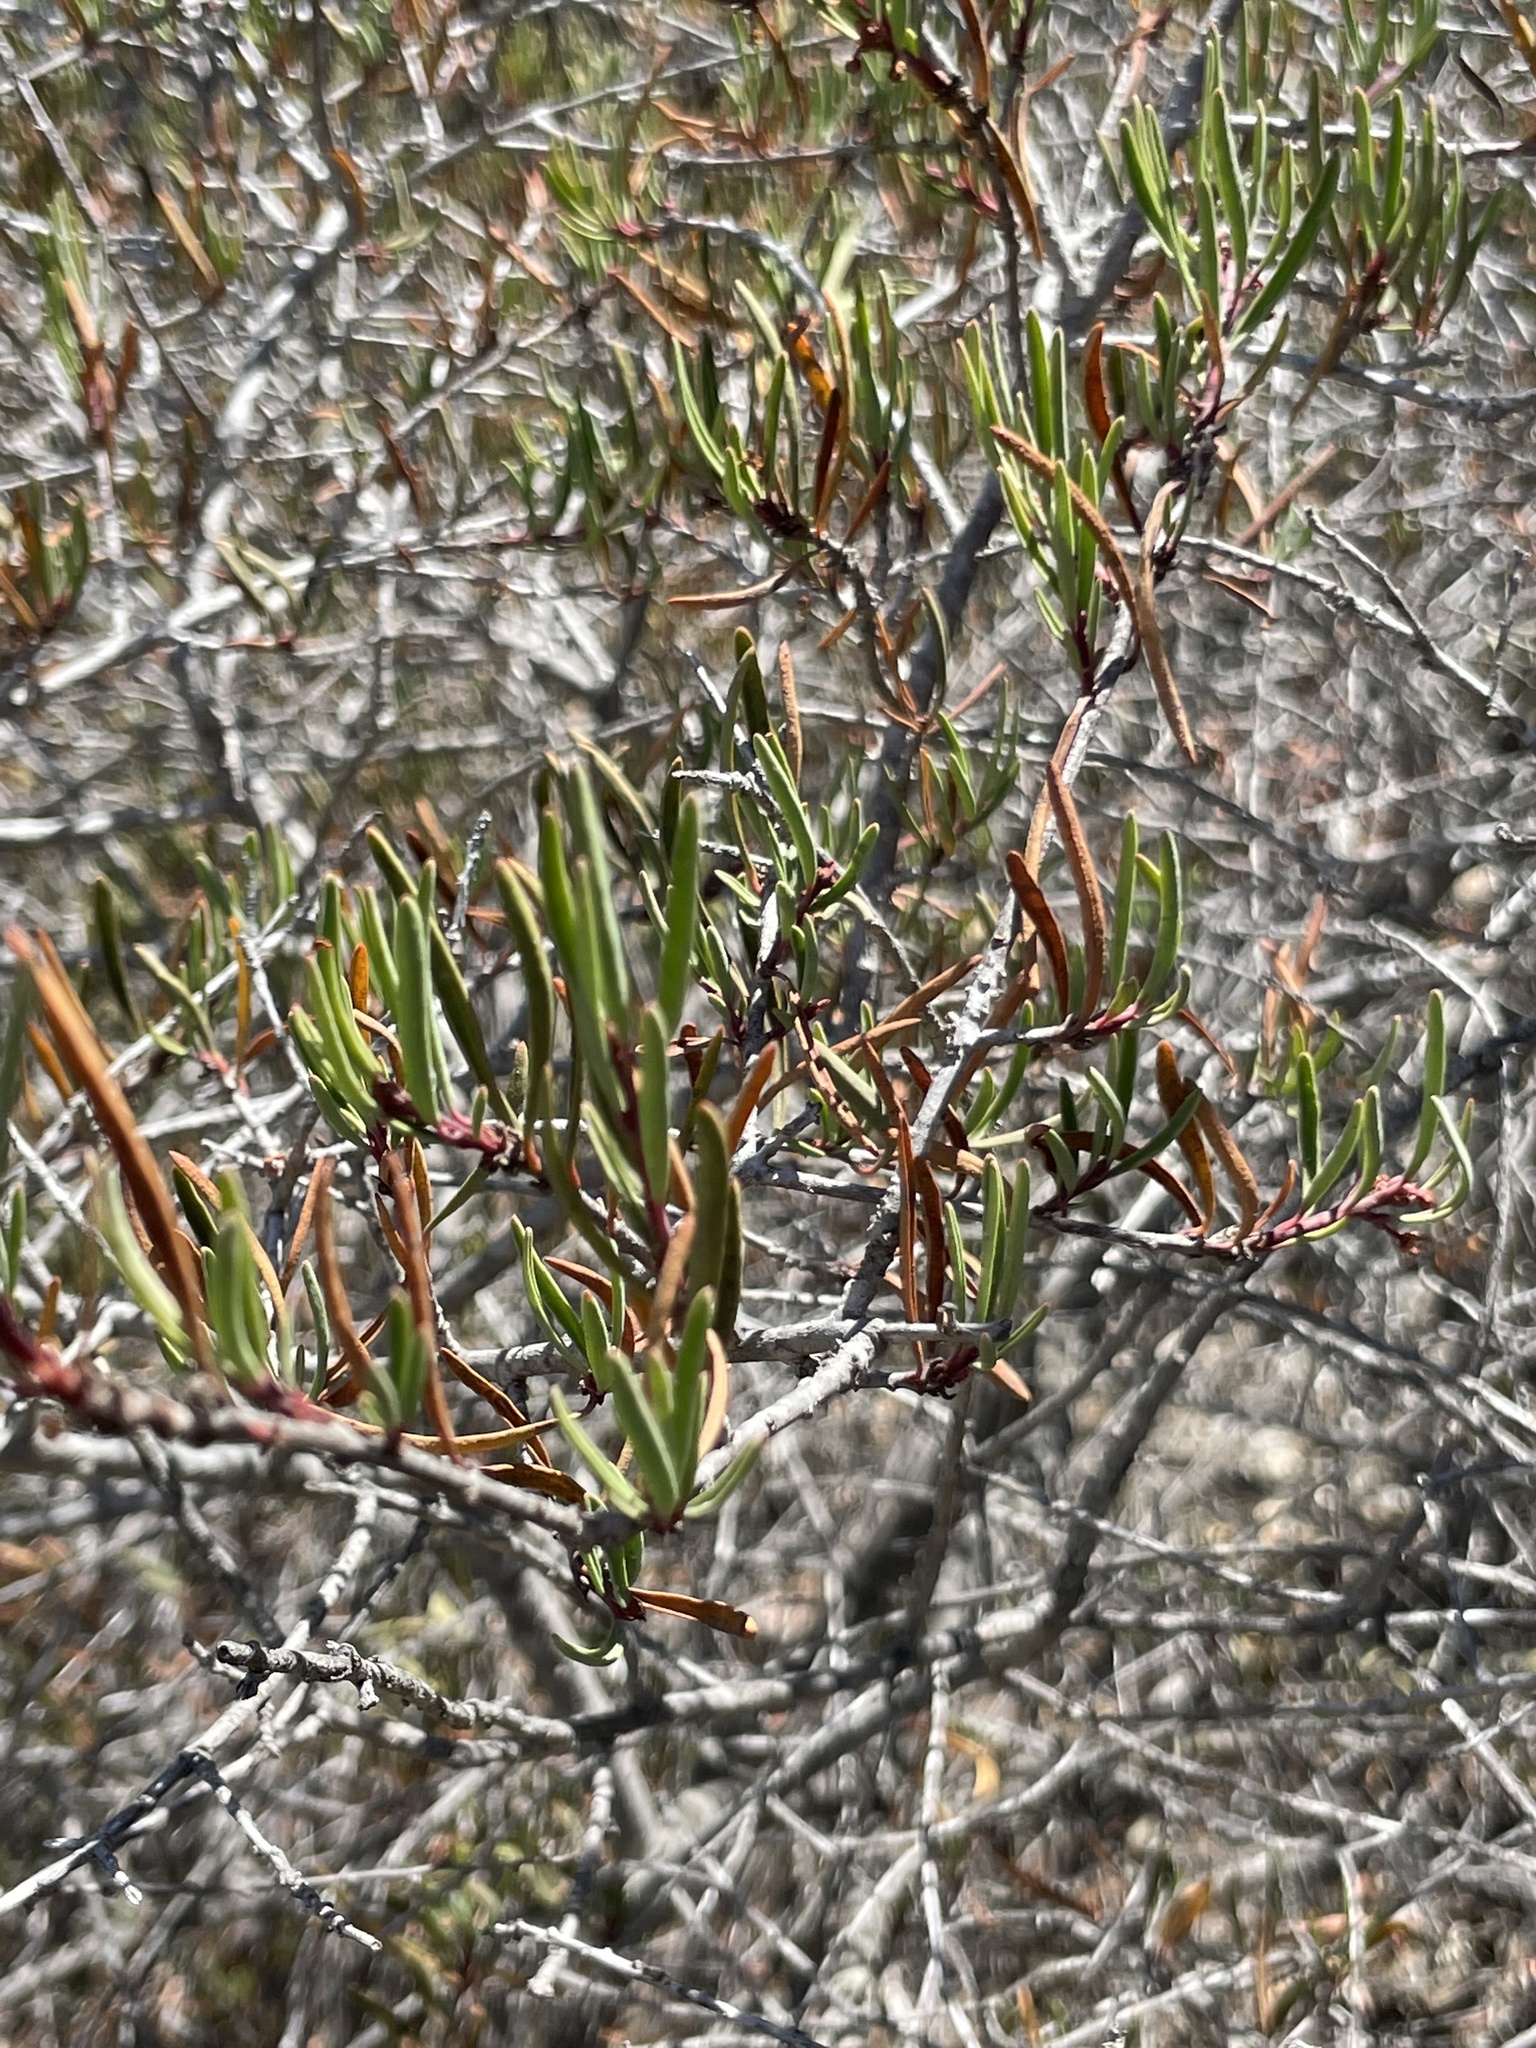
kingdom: Plantae
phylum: Tracheophyta
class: Magnoliopsida
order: Ericales
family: Ericaceae
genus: Arctostaphylos
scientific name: Arctostaphylos bicolor
